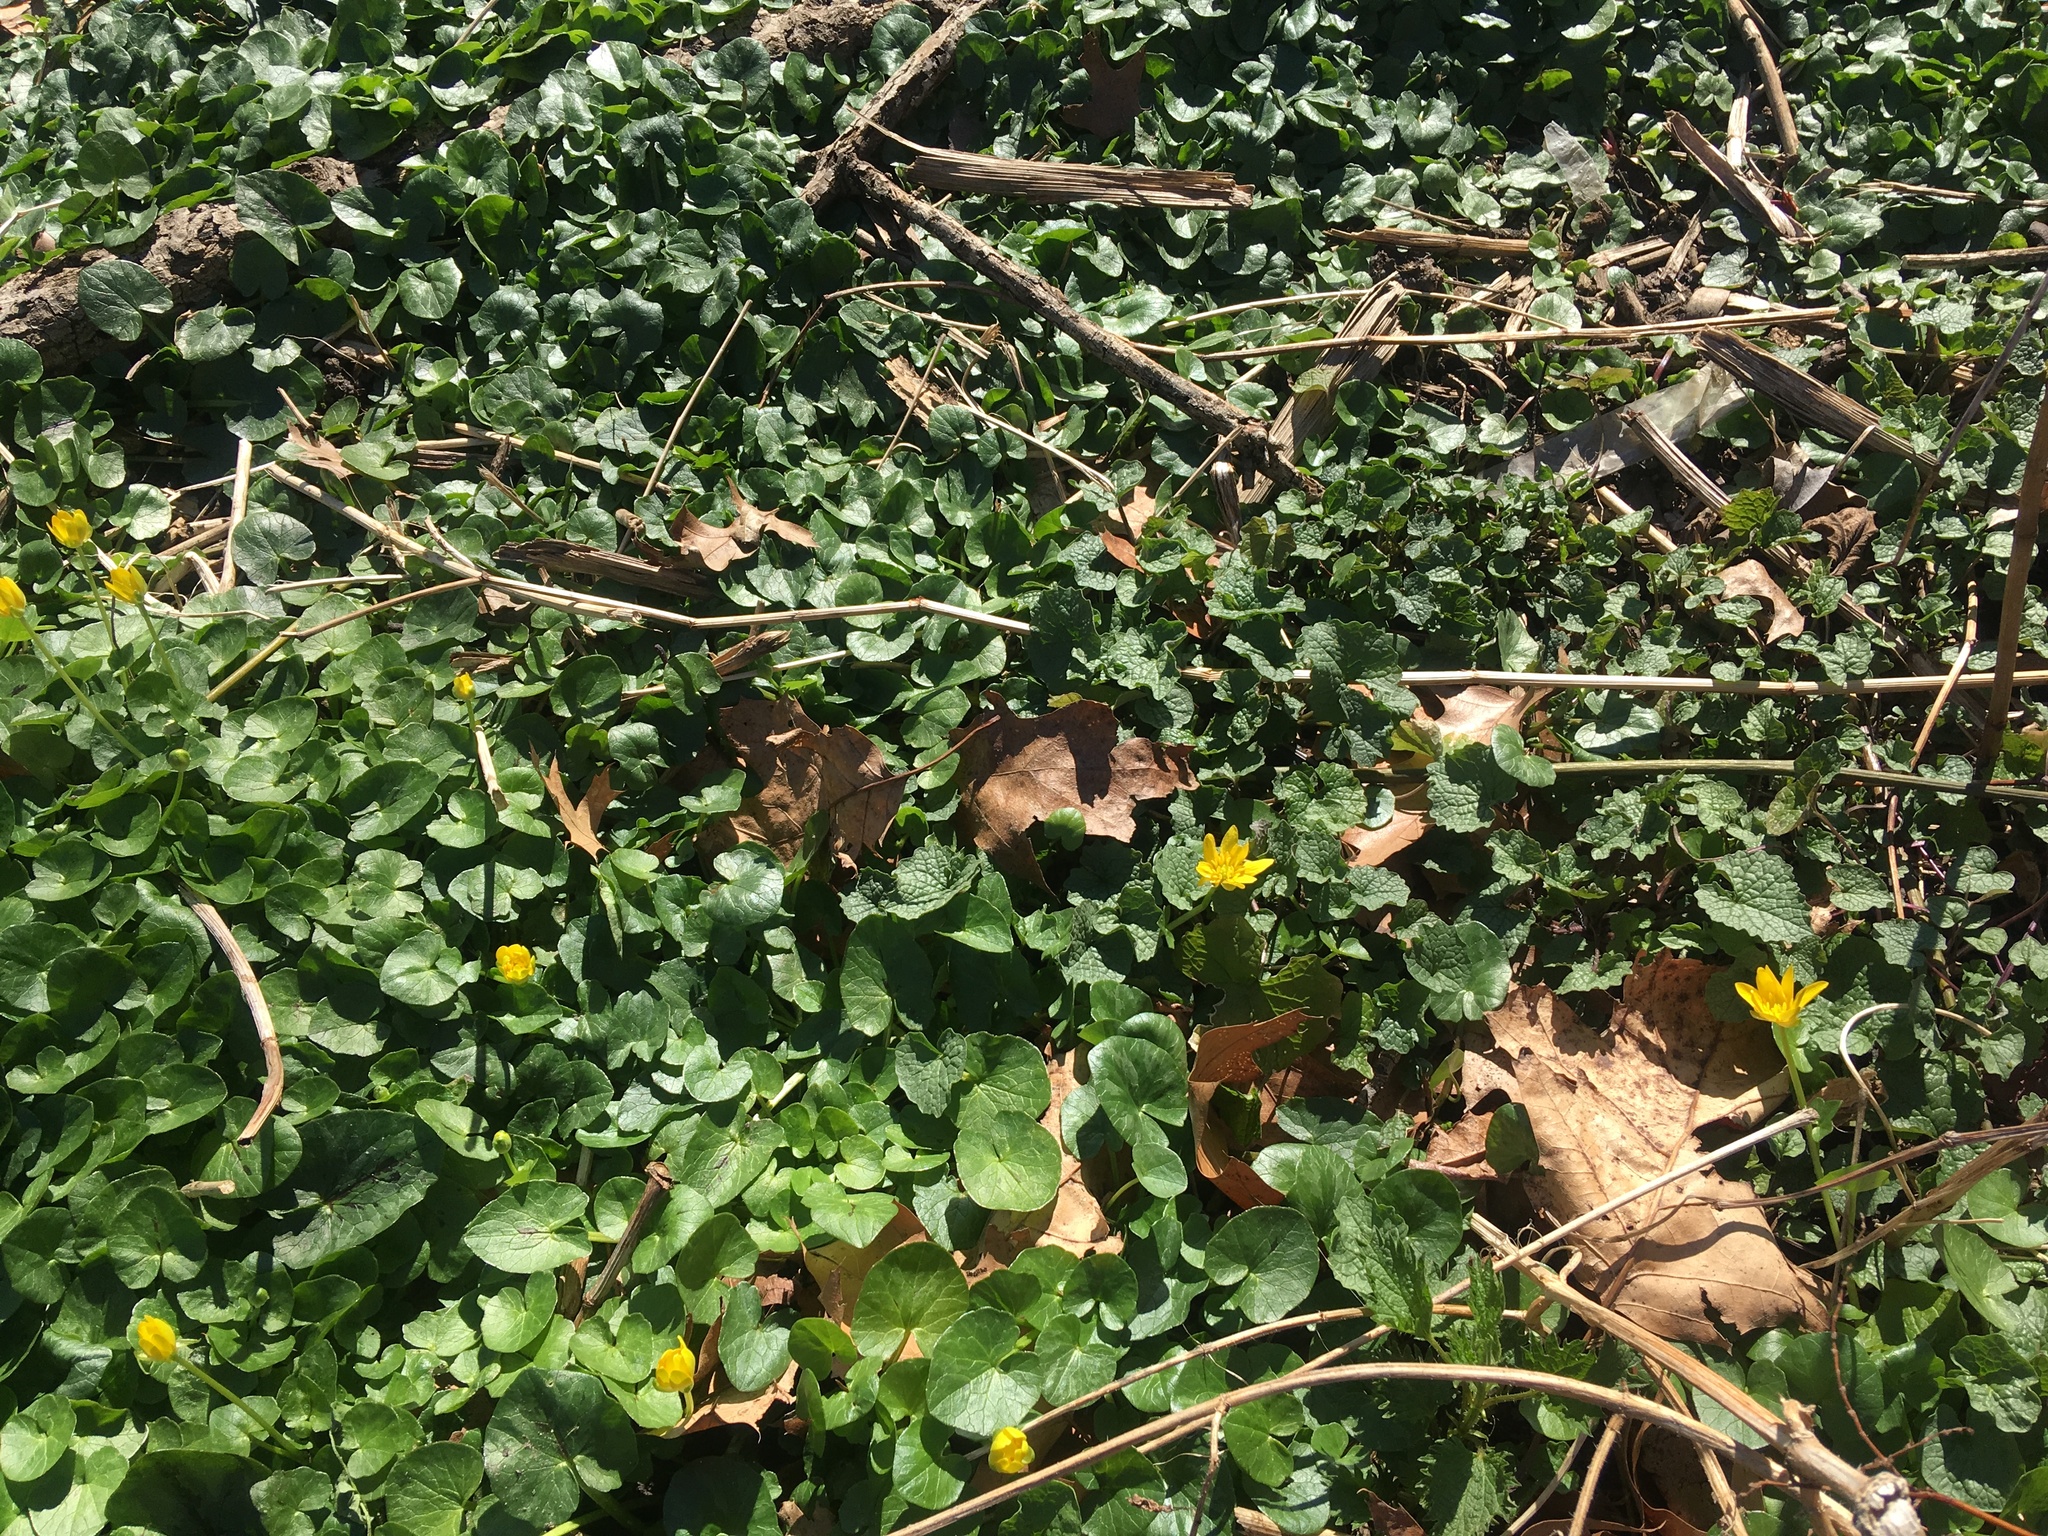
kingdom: Plantae
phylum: Tracheophyta
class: Magnoliopsida
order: Ranunculales
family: Ranunculaceae
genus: Ficaria
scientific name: Ficaria verna
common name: Lesser celandine
